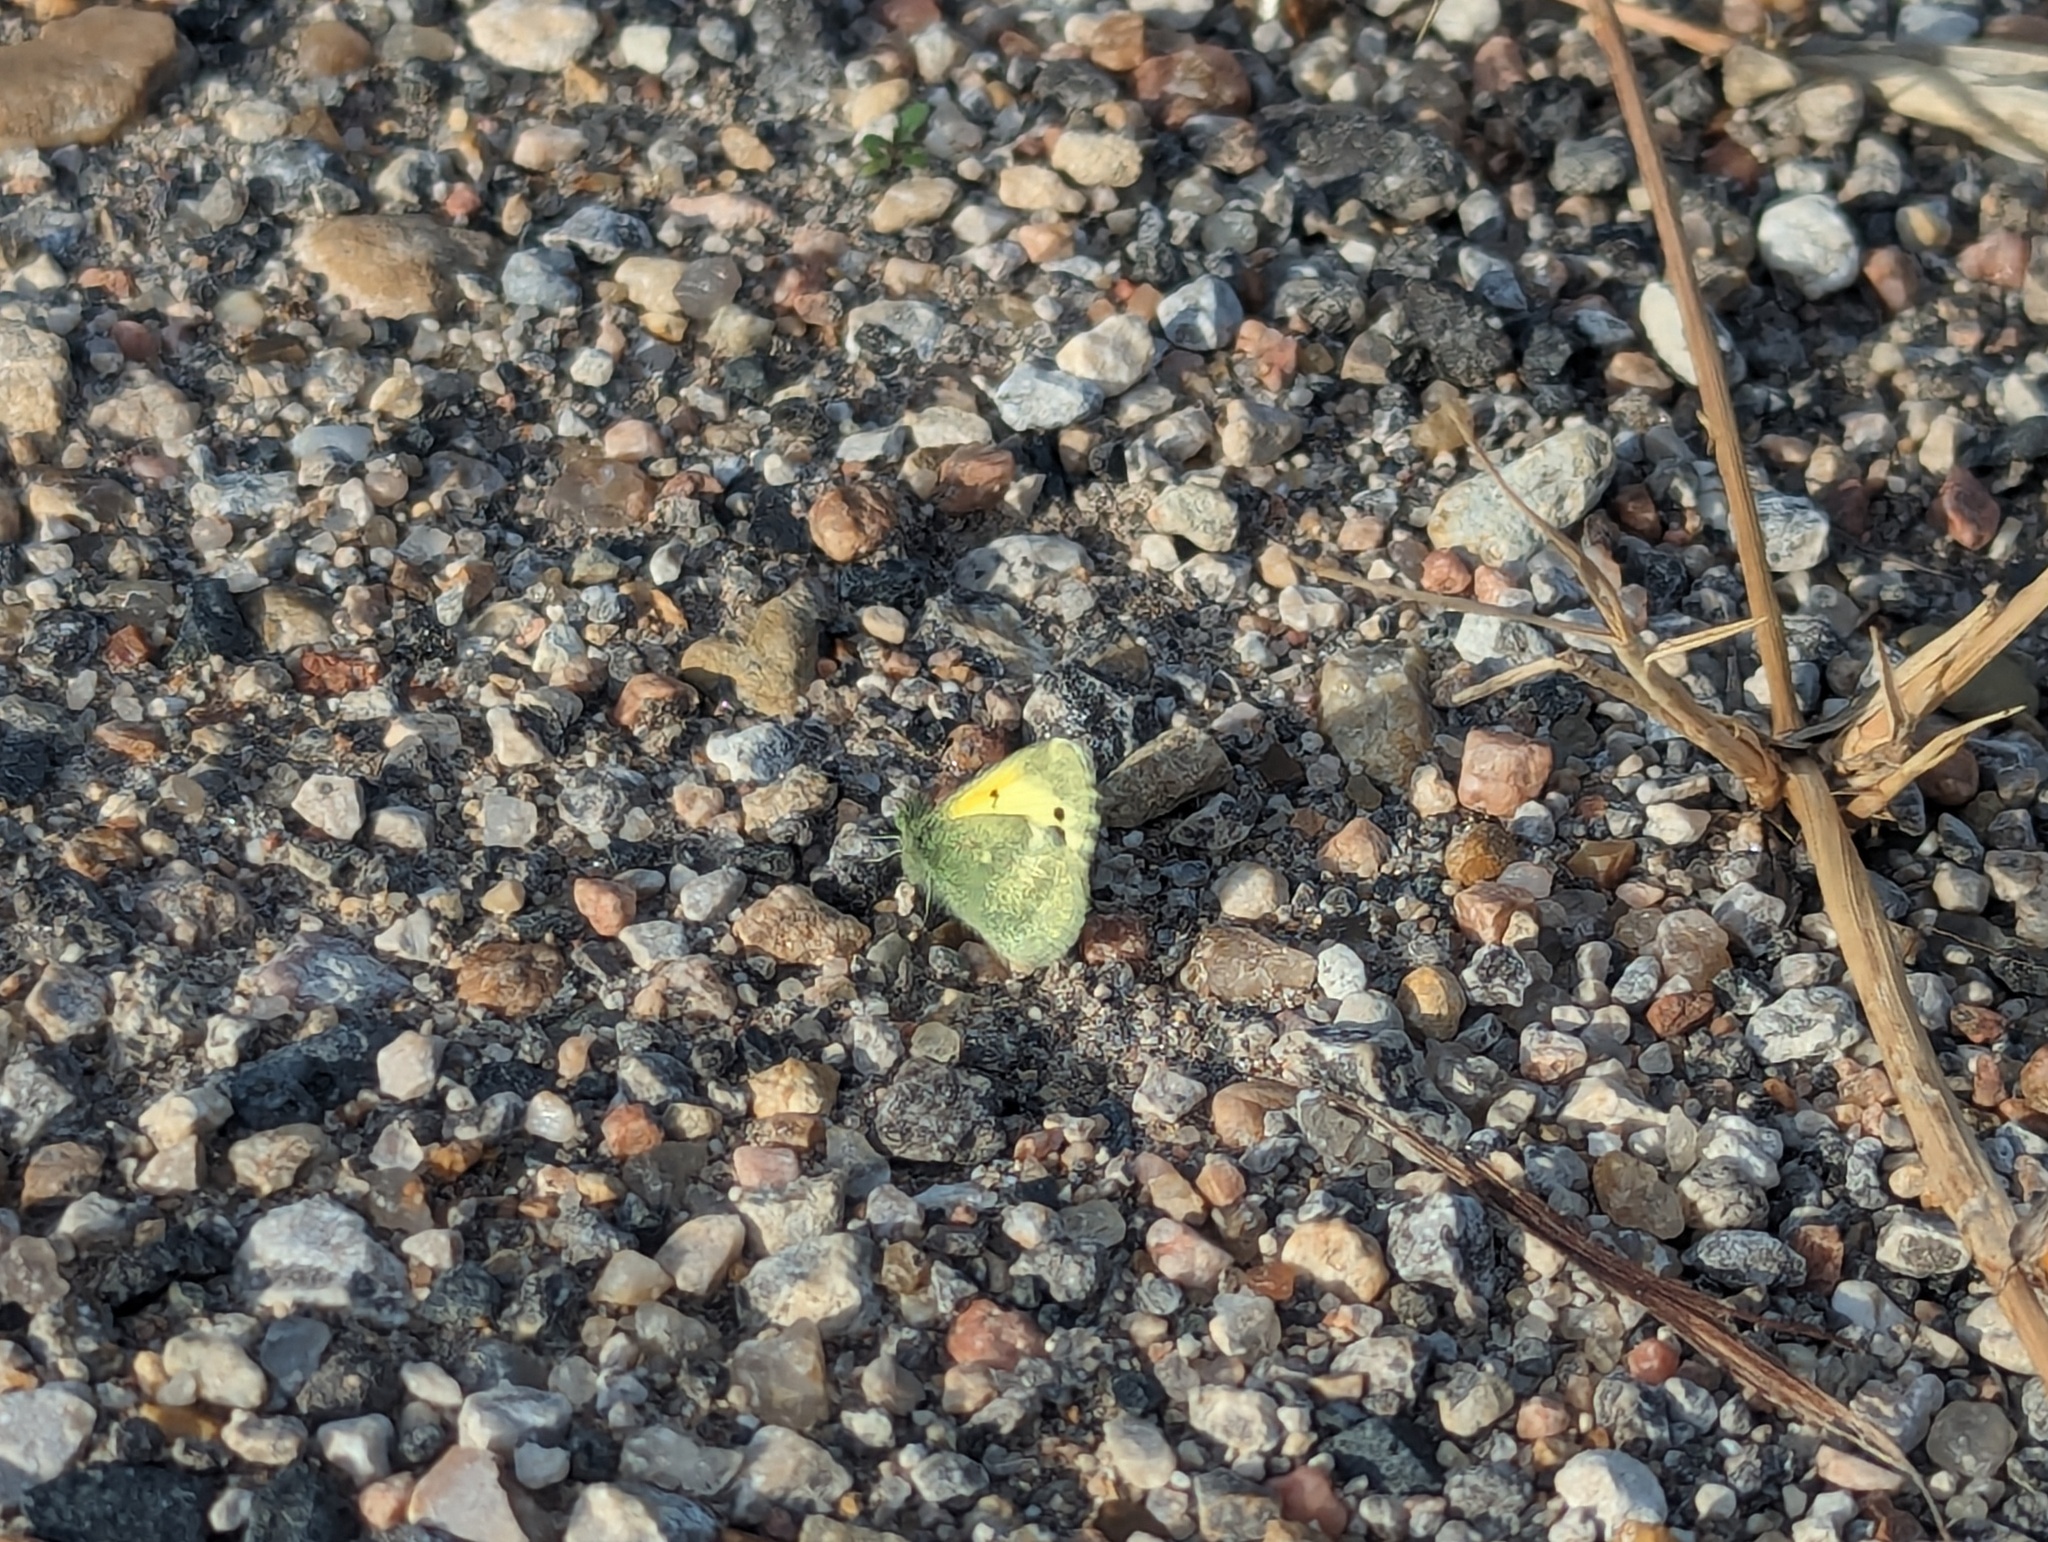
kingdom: Animalia
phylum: Arthropoda
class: Insecta
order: Lepidoptera
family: Pieridae
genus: Nathalis
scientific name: Nathalis iole
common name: Dainty sulphur
